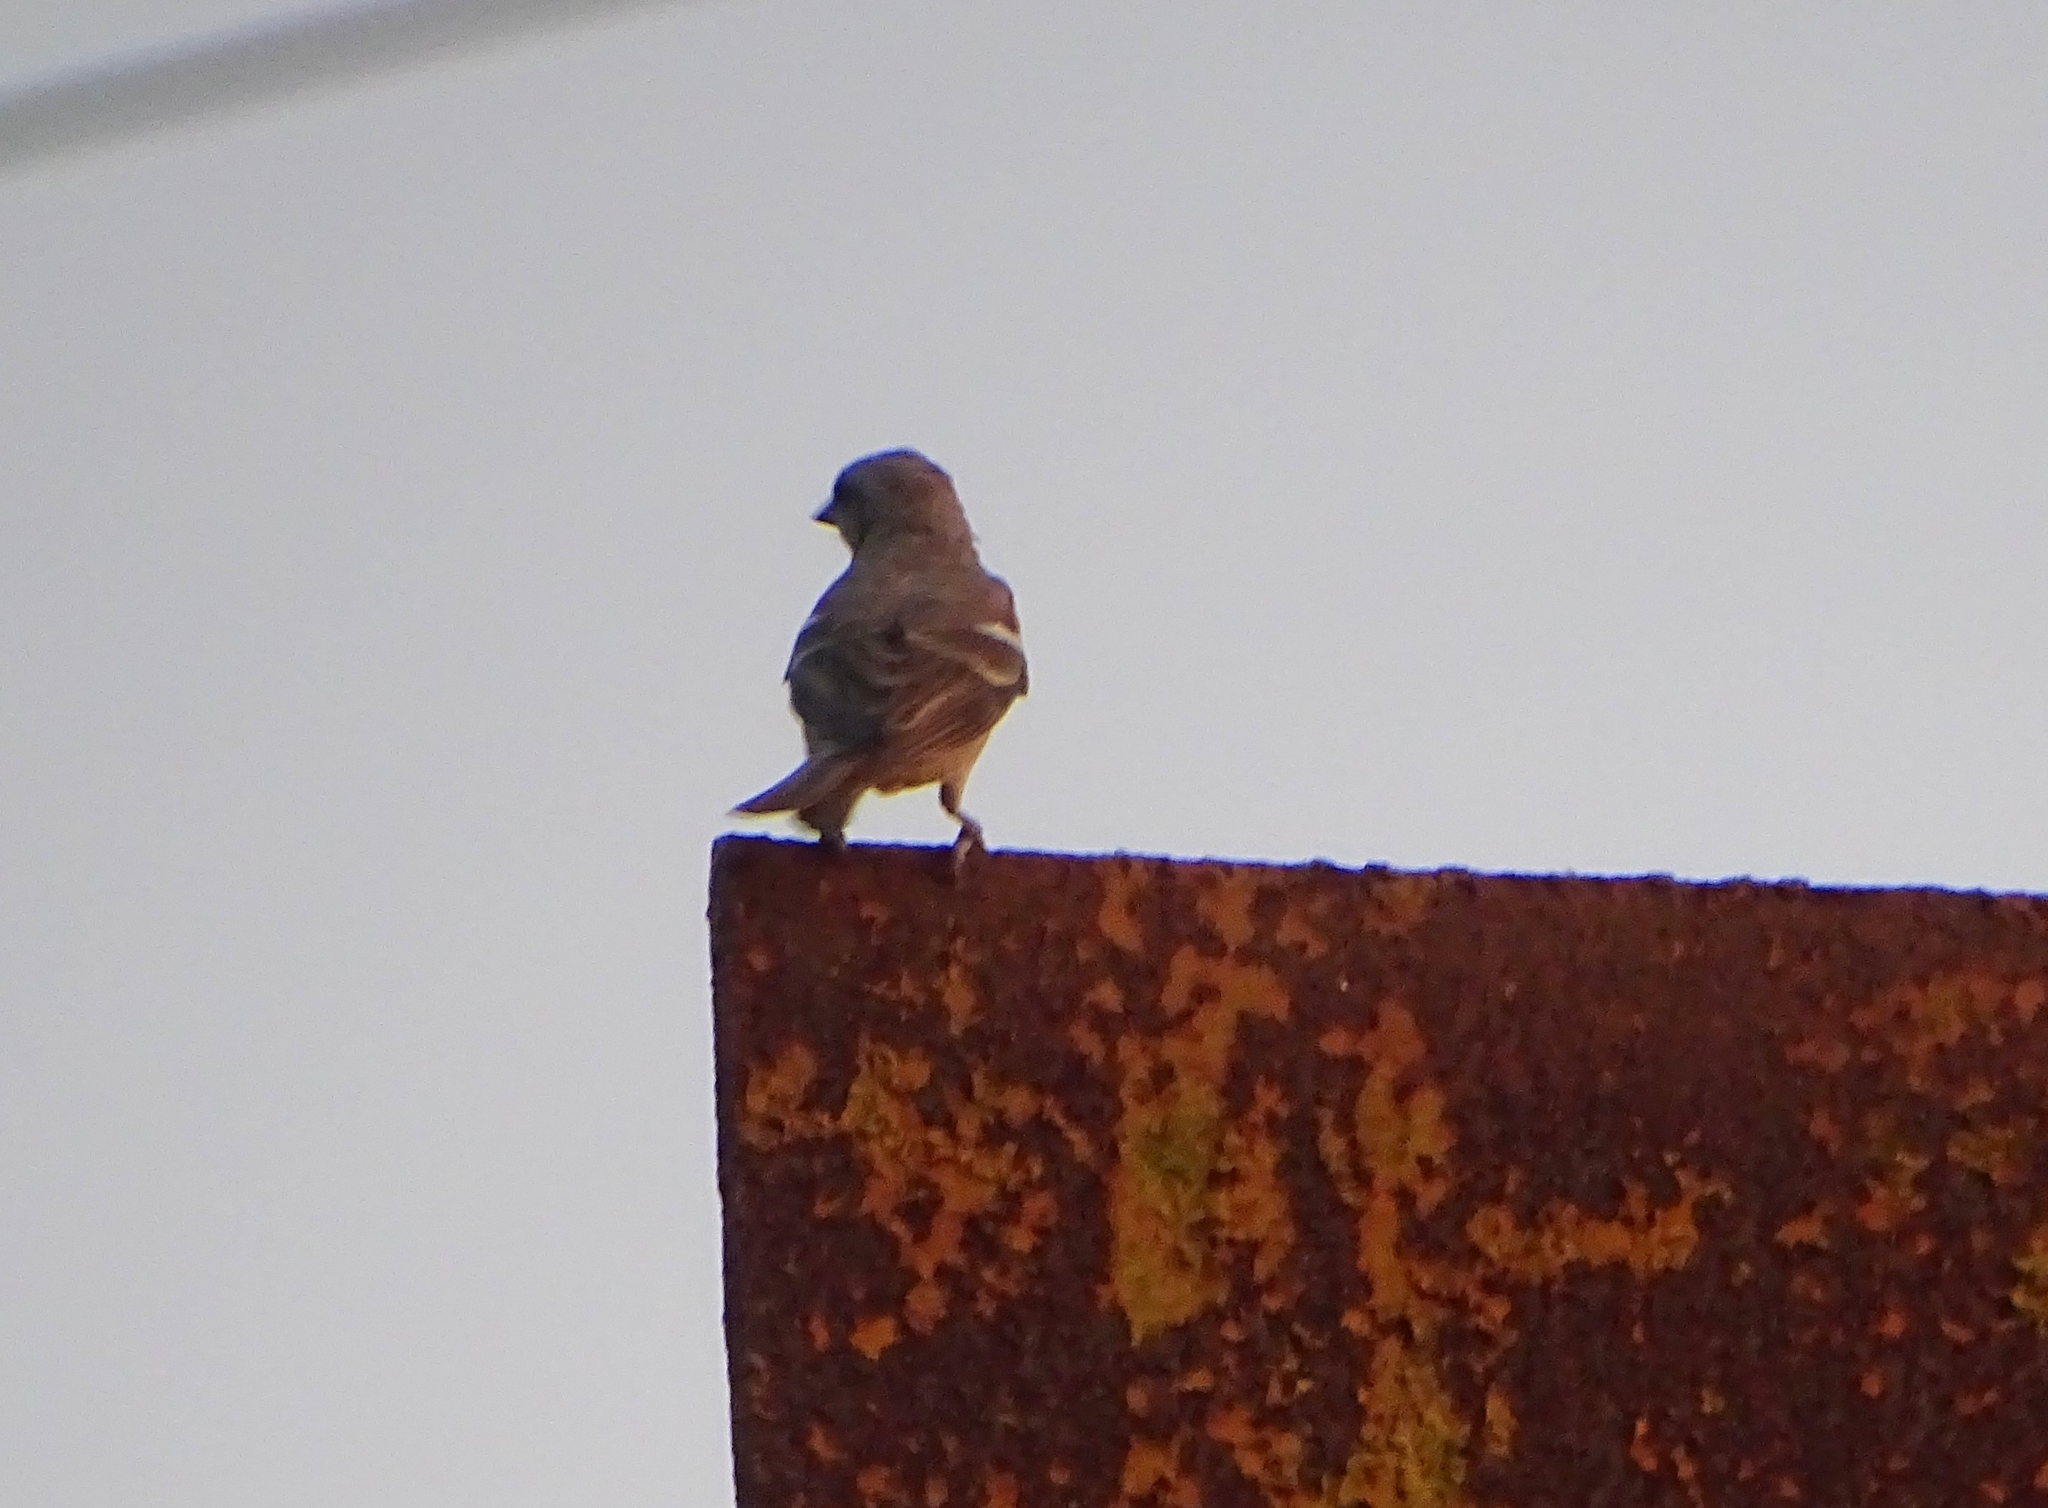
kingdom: Animalia
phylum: Chordata
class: Aves
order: Passeriformes
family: Passeridae
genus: Gymnoris
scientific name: Gymnoris xanthocollis
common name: Yellow-throated sparrow
